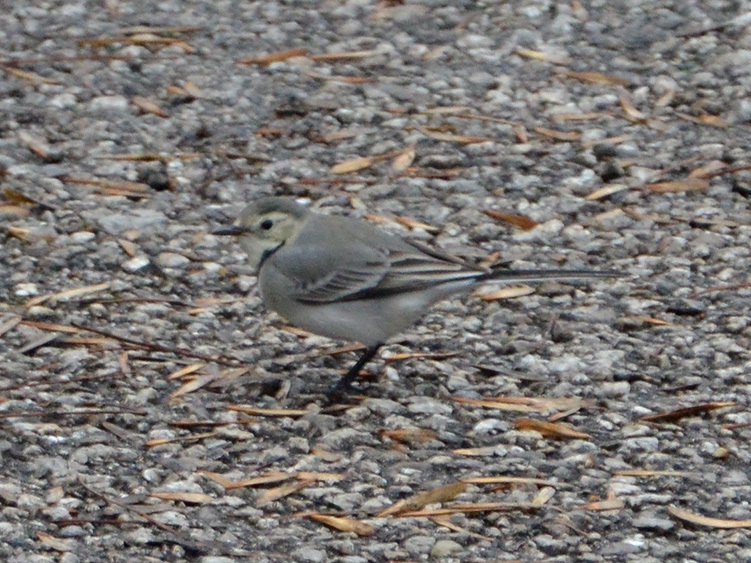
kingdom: Animalia
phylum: Chordata
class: Aves
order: Passeriformes
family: Motacillidae
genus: Motacilla
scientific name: Motacilla alba
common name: White wagtail
